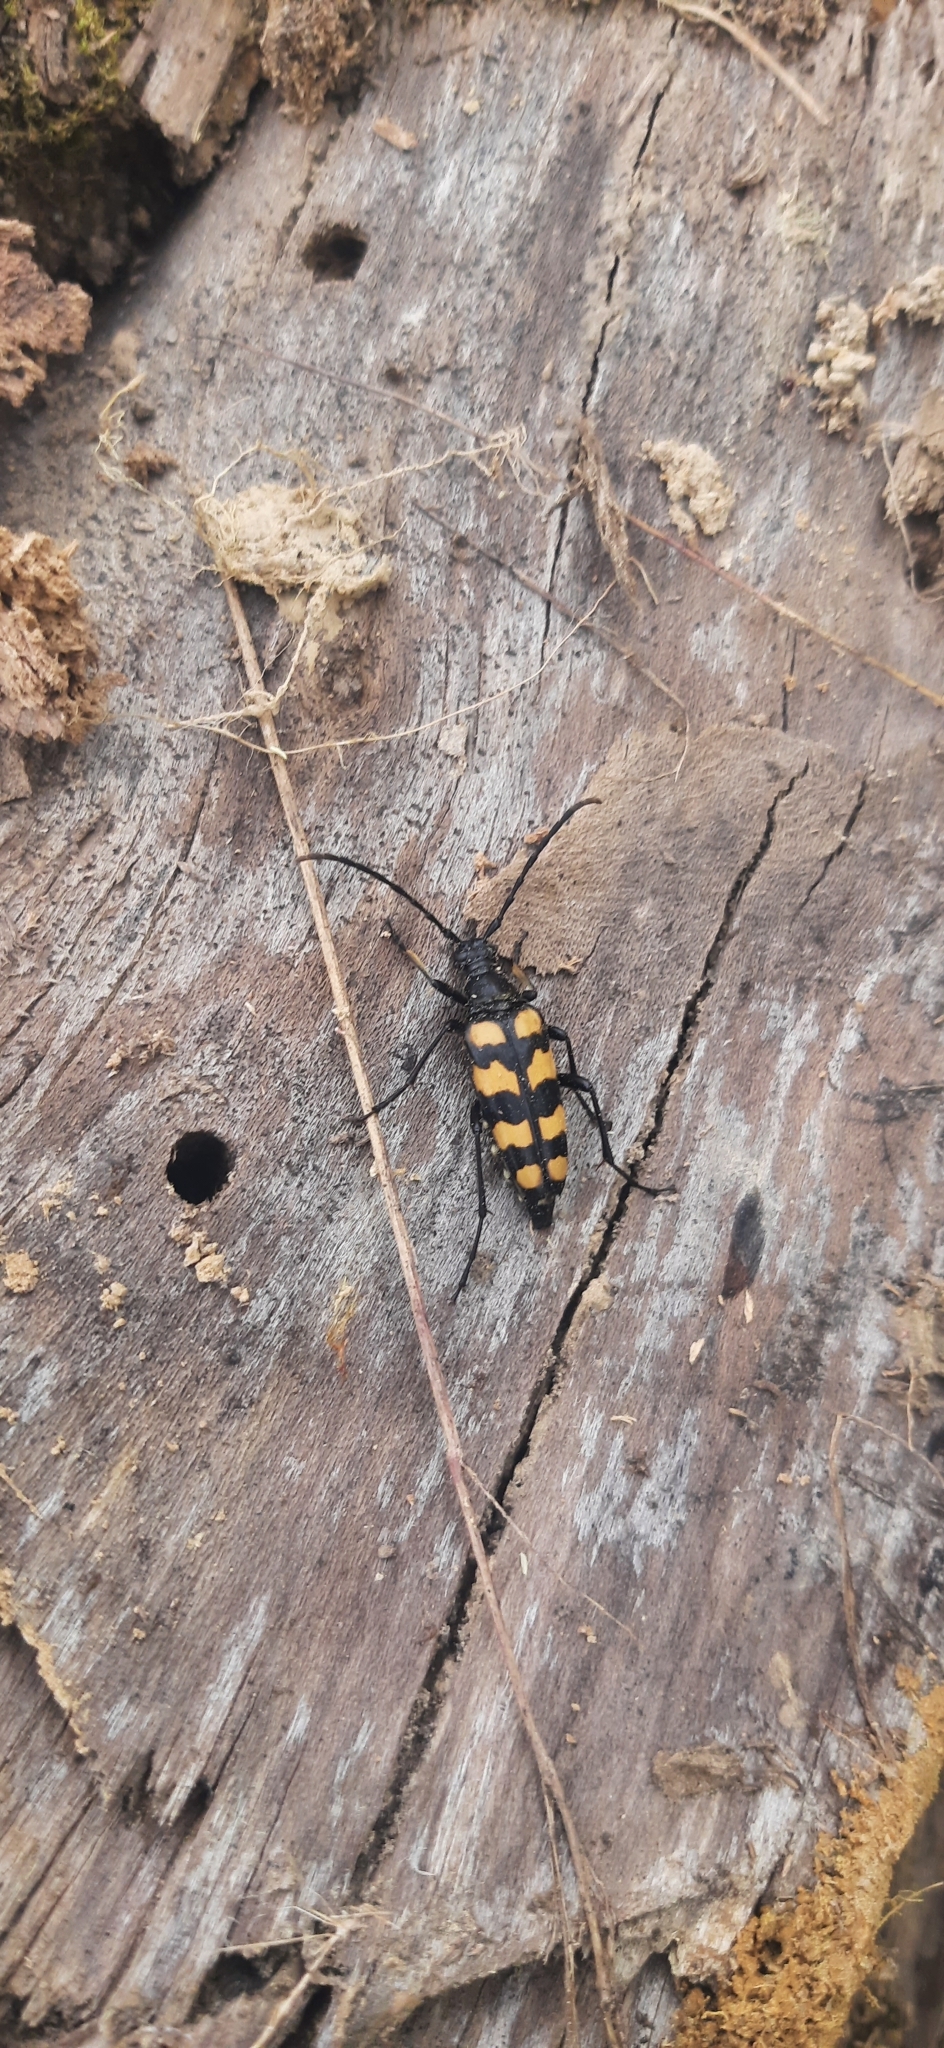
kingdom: Animalia
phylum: Arthropoda
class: Insecta
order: Coleoptera
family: Cerambycidae
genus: Leptura
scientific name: Leptura quadrifasciata
